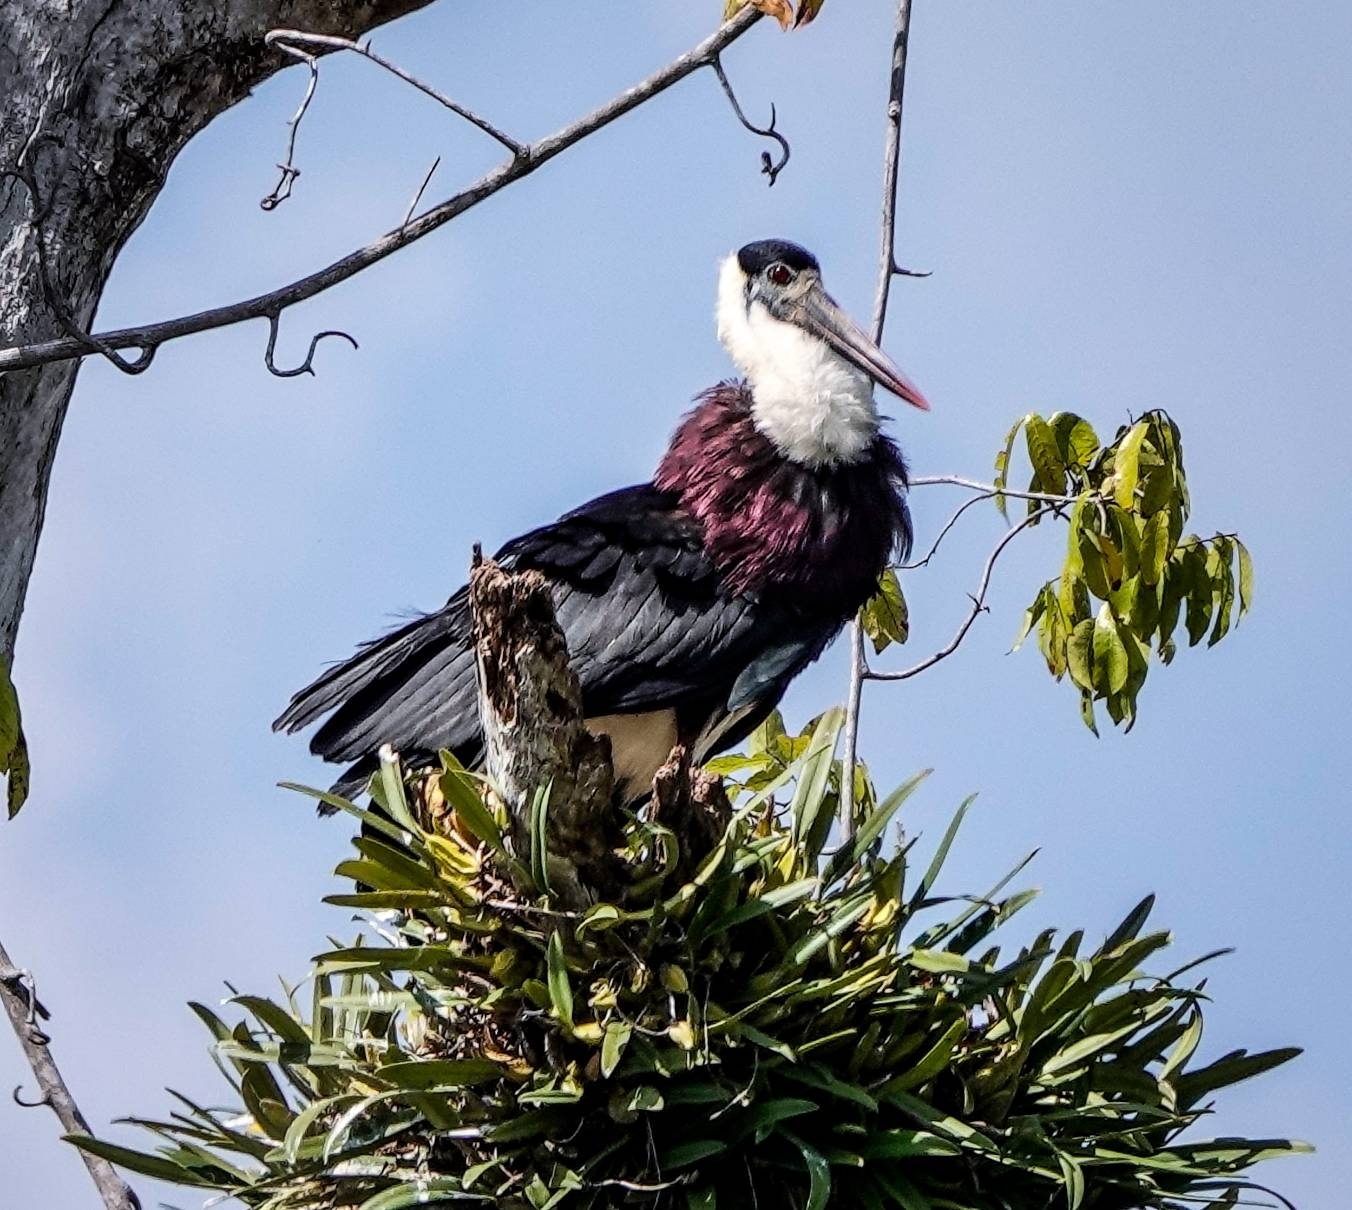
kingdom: Animalia
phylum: Chordata
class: Aves
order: Ciconiiformes
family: Ciconiidae
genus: Ciconia
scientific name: Ciconia episcopus
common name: Woolly-necked stork
